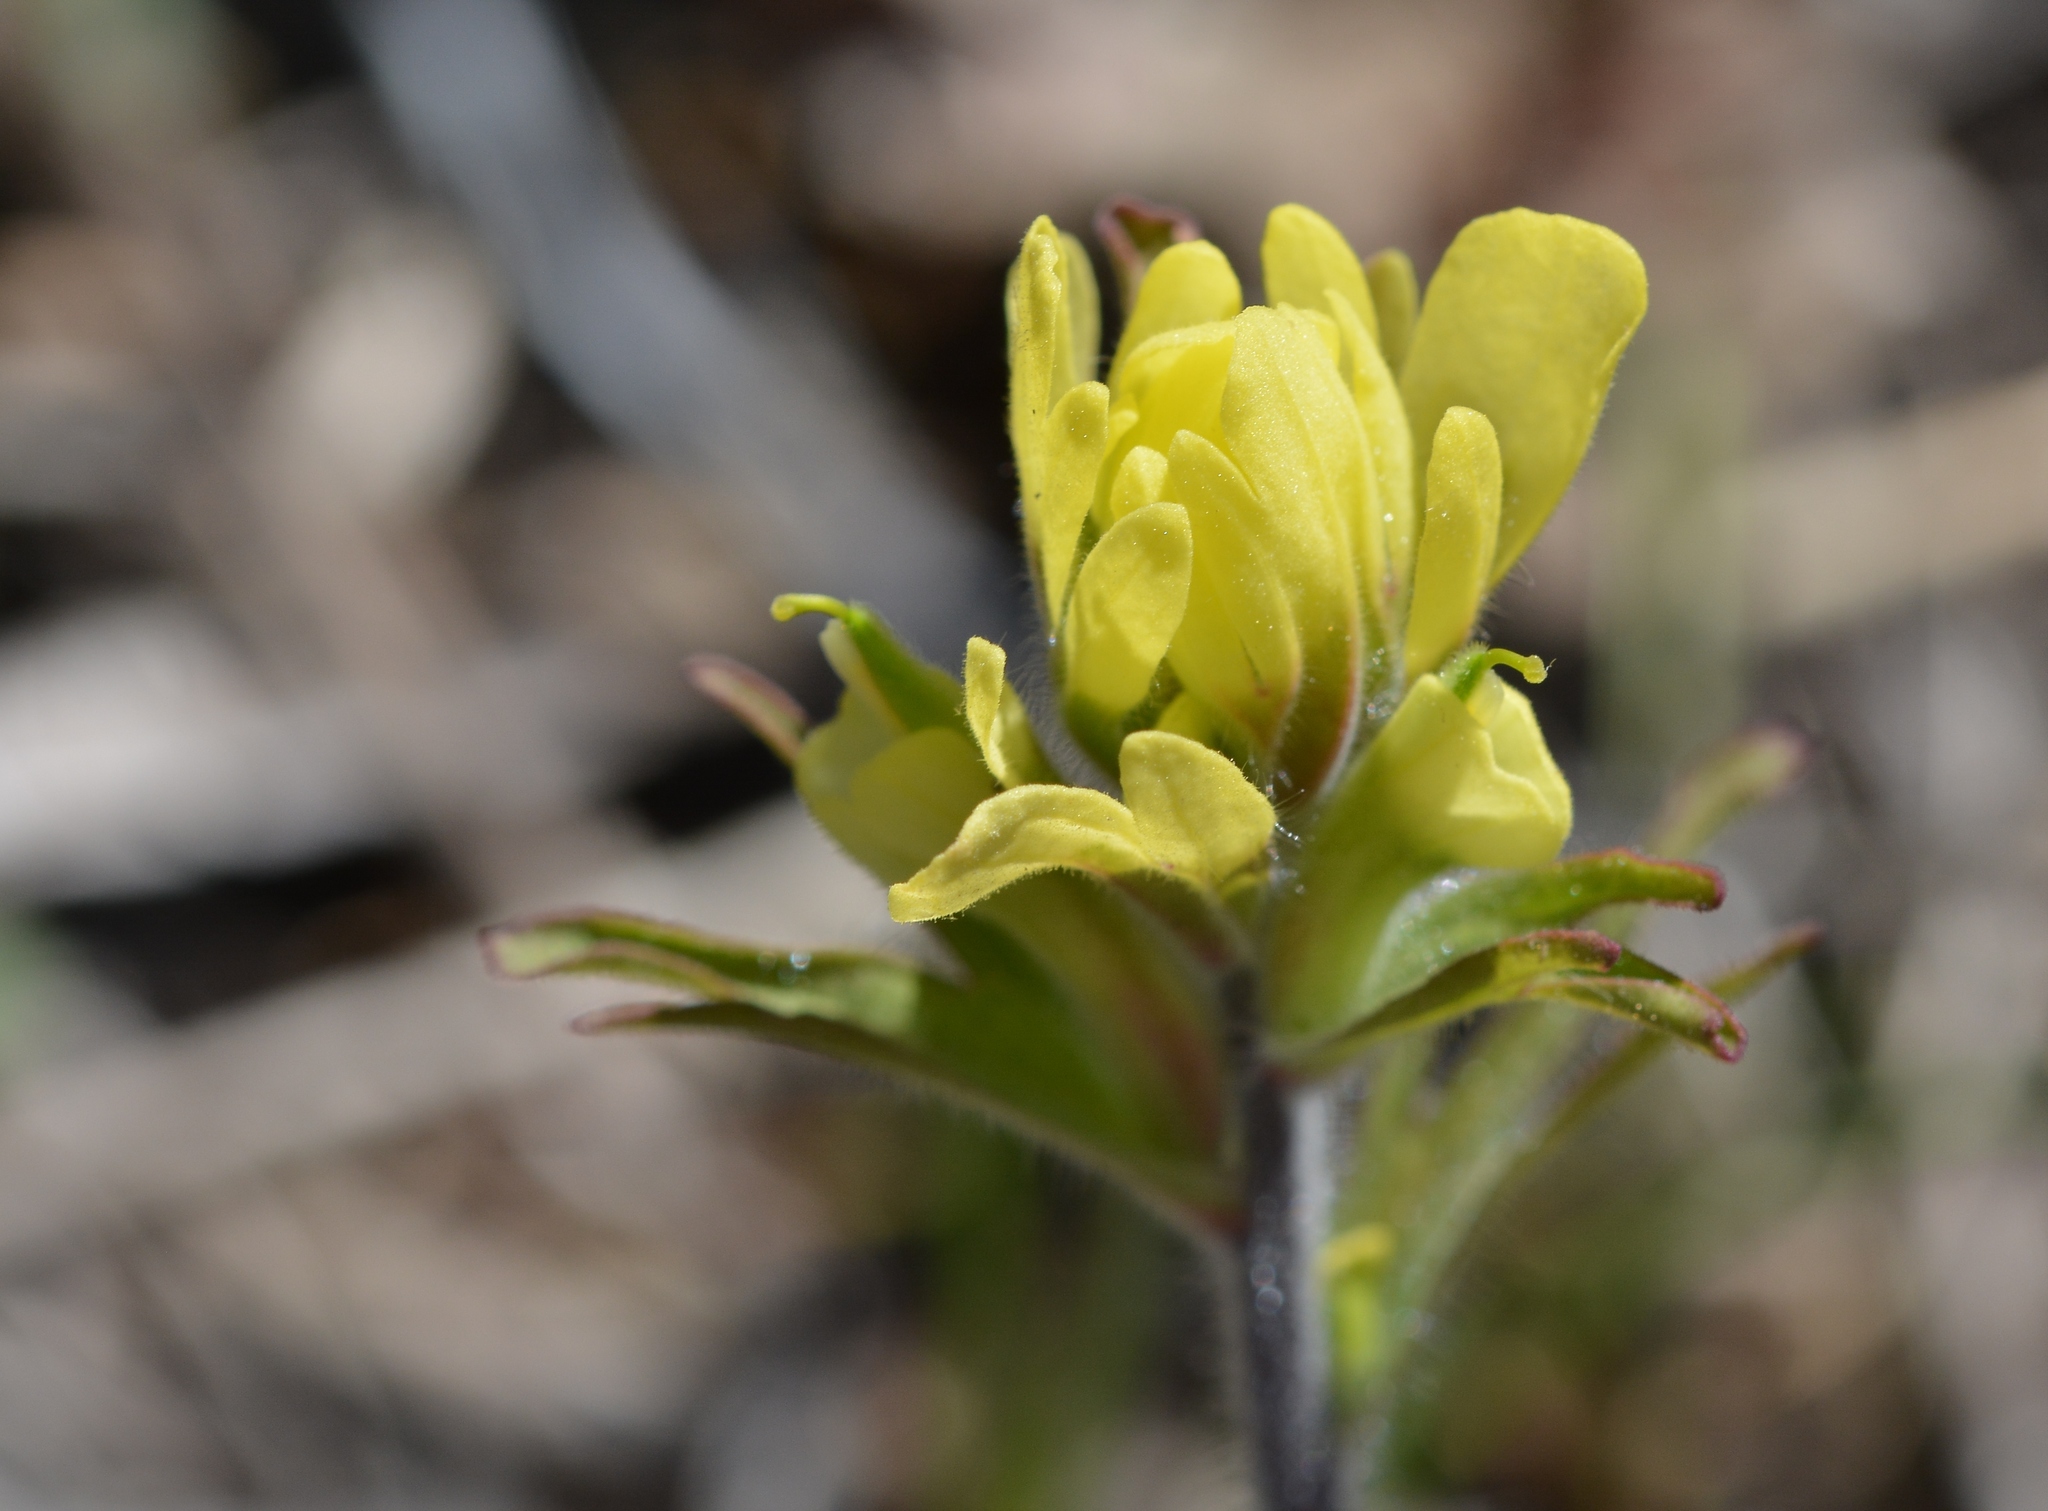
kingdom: Plantae
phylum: Tracheophyta
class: Magnoliopsida
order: Lamiales
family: Orobanchaceae
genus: Castilleja
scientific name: Castilleja coccinea
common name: Scarlet paintbrush
